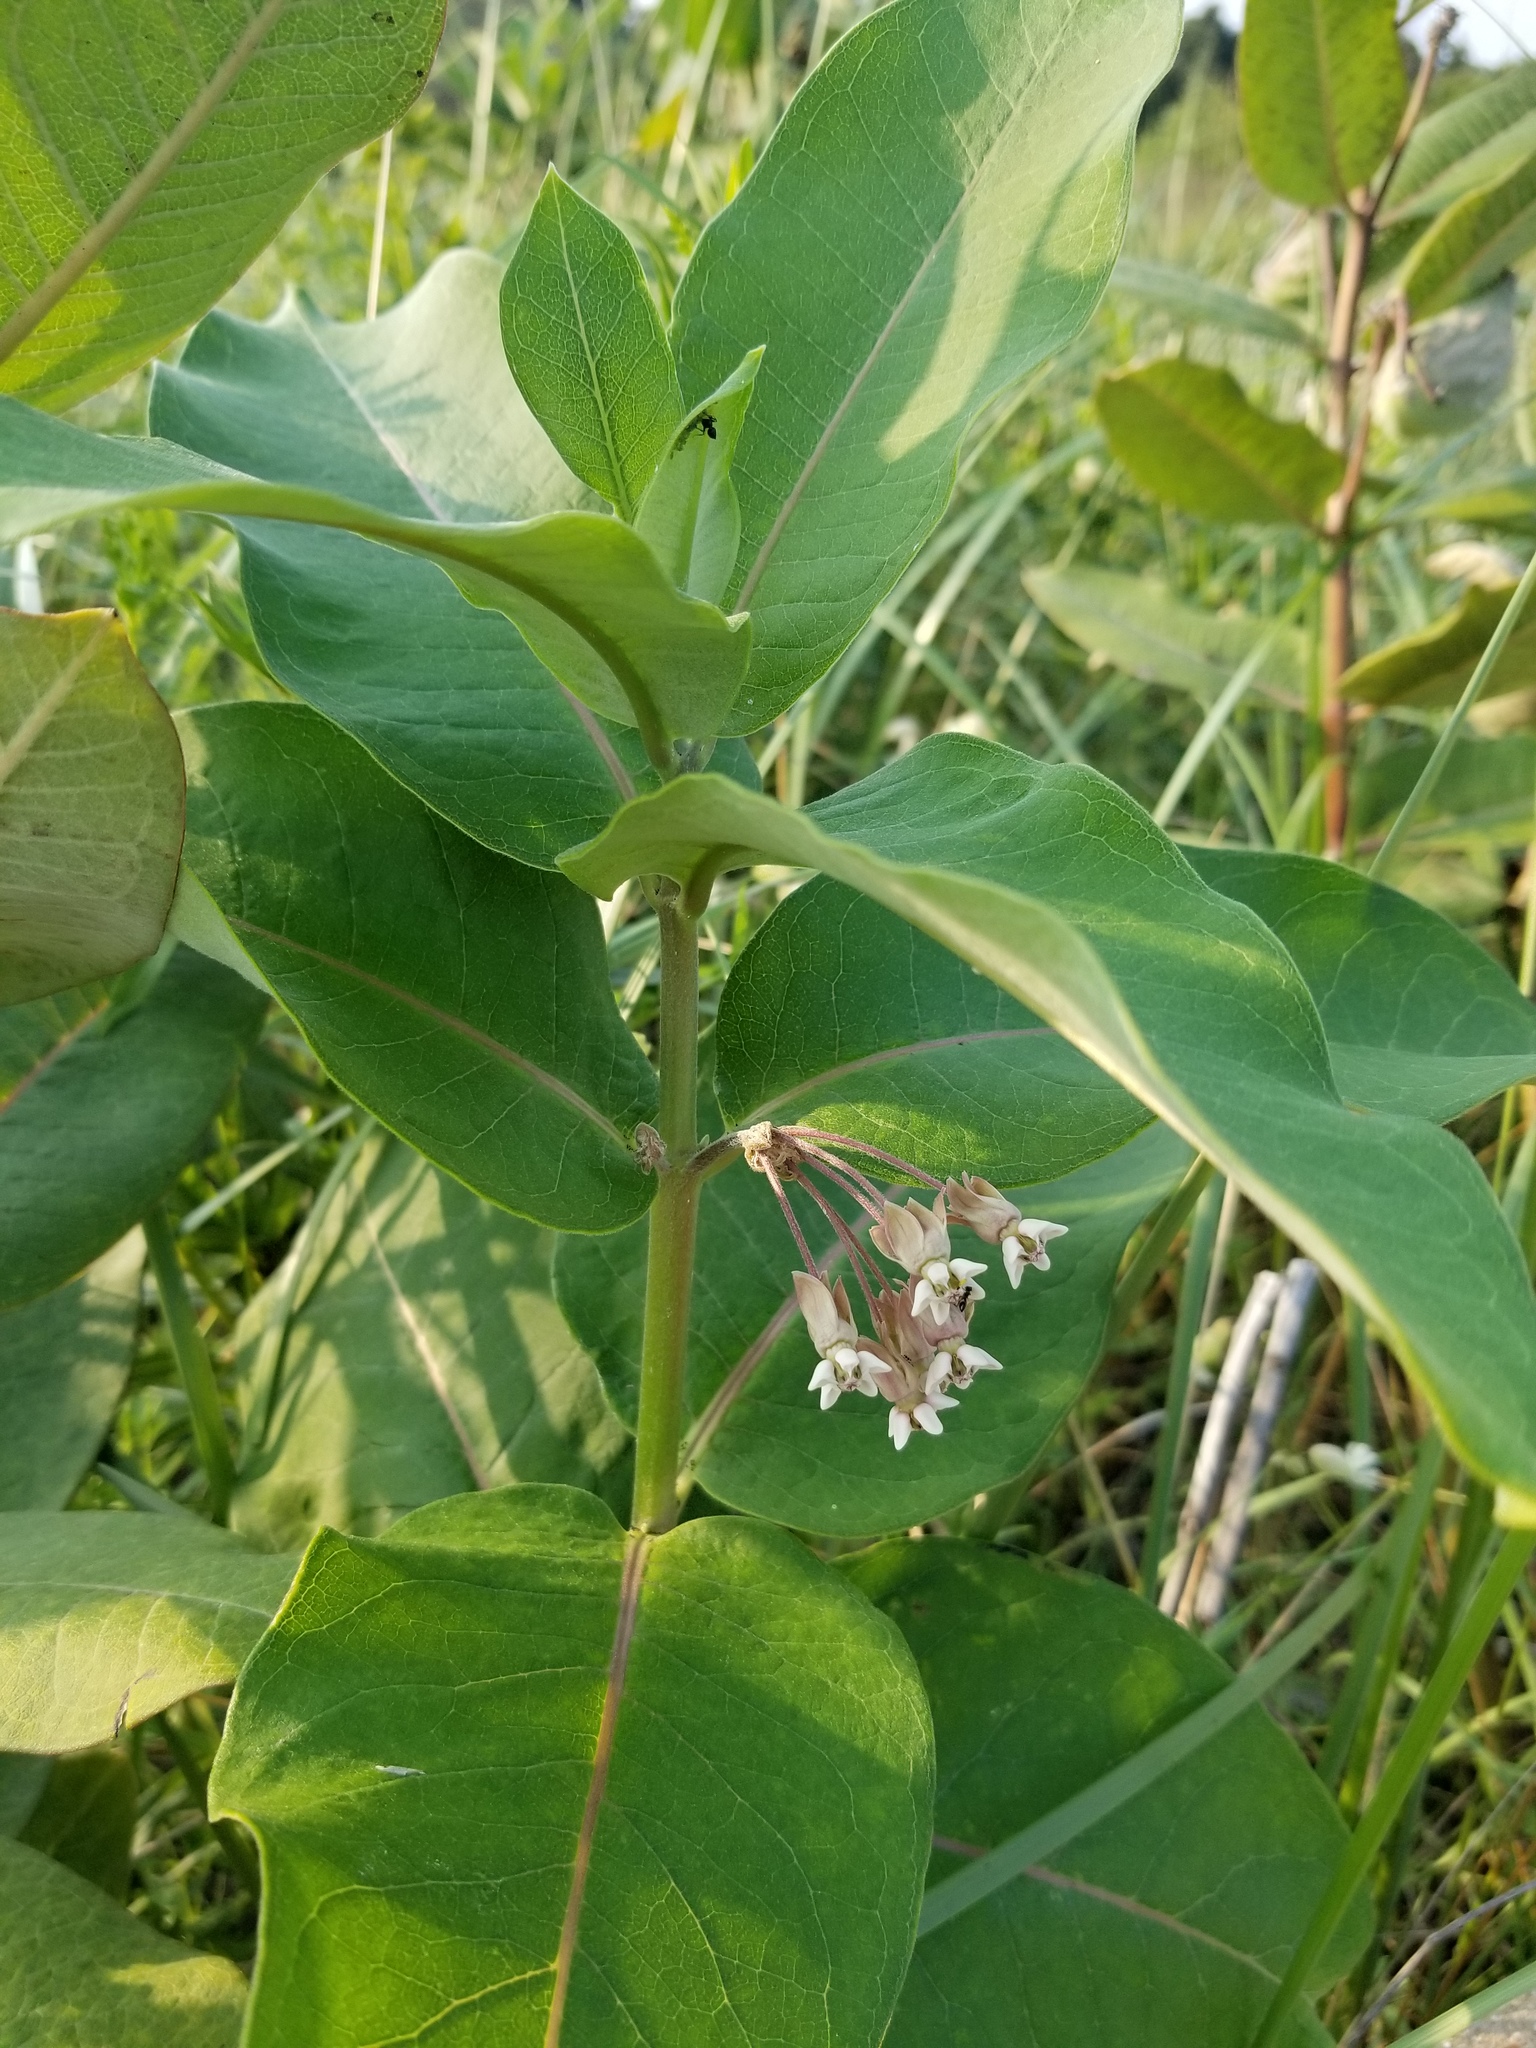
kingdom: Plantae
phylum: Tracheophyta
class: Magnoliopsida
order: Gentianales
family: Apocynaceae
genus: Asclepias
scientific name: Asclepias syriaca
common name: Common milkweed
